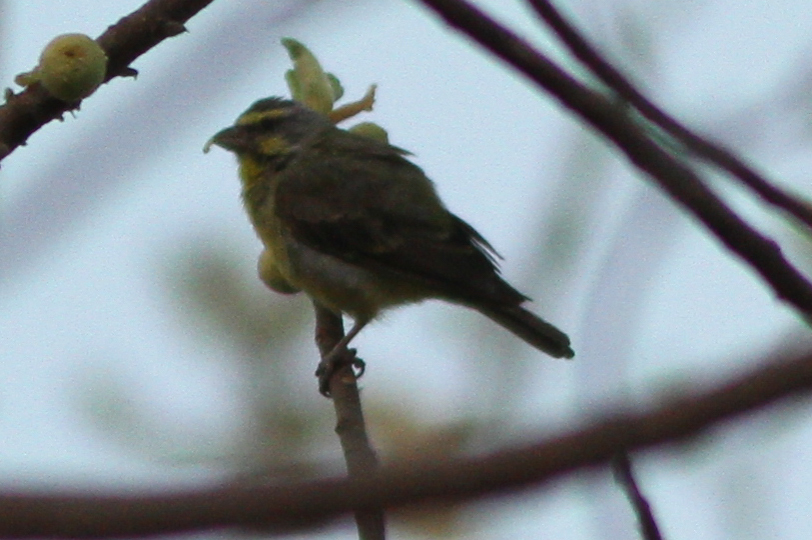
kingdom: Animalia
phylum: Chordata
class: Aves
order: Passeriformes
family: Fringillidae
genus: Crithagra
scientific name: Crithagra mozambica
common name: Yellow-fronted canary
